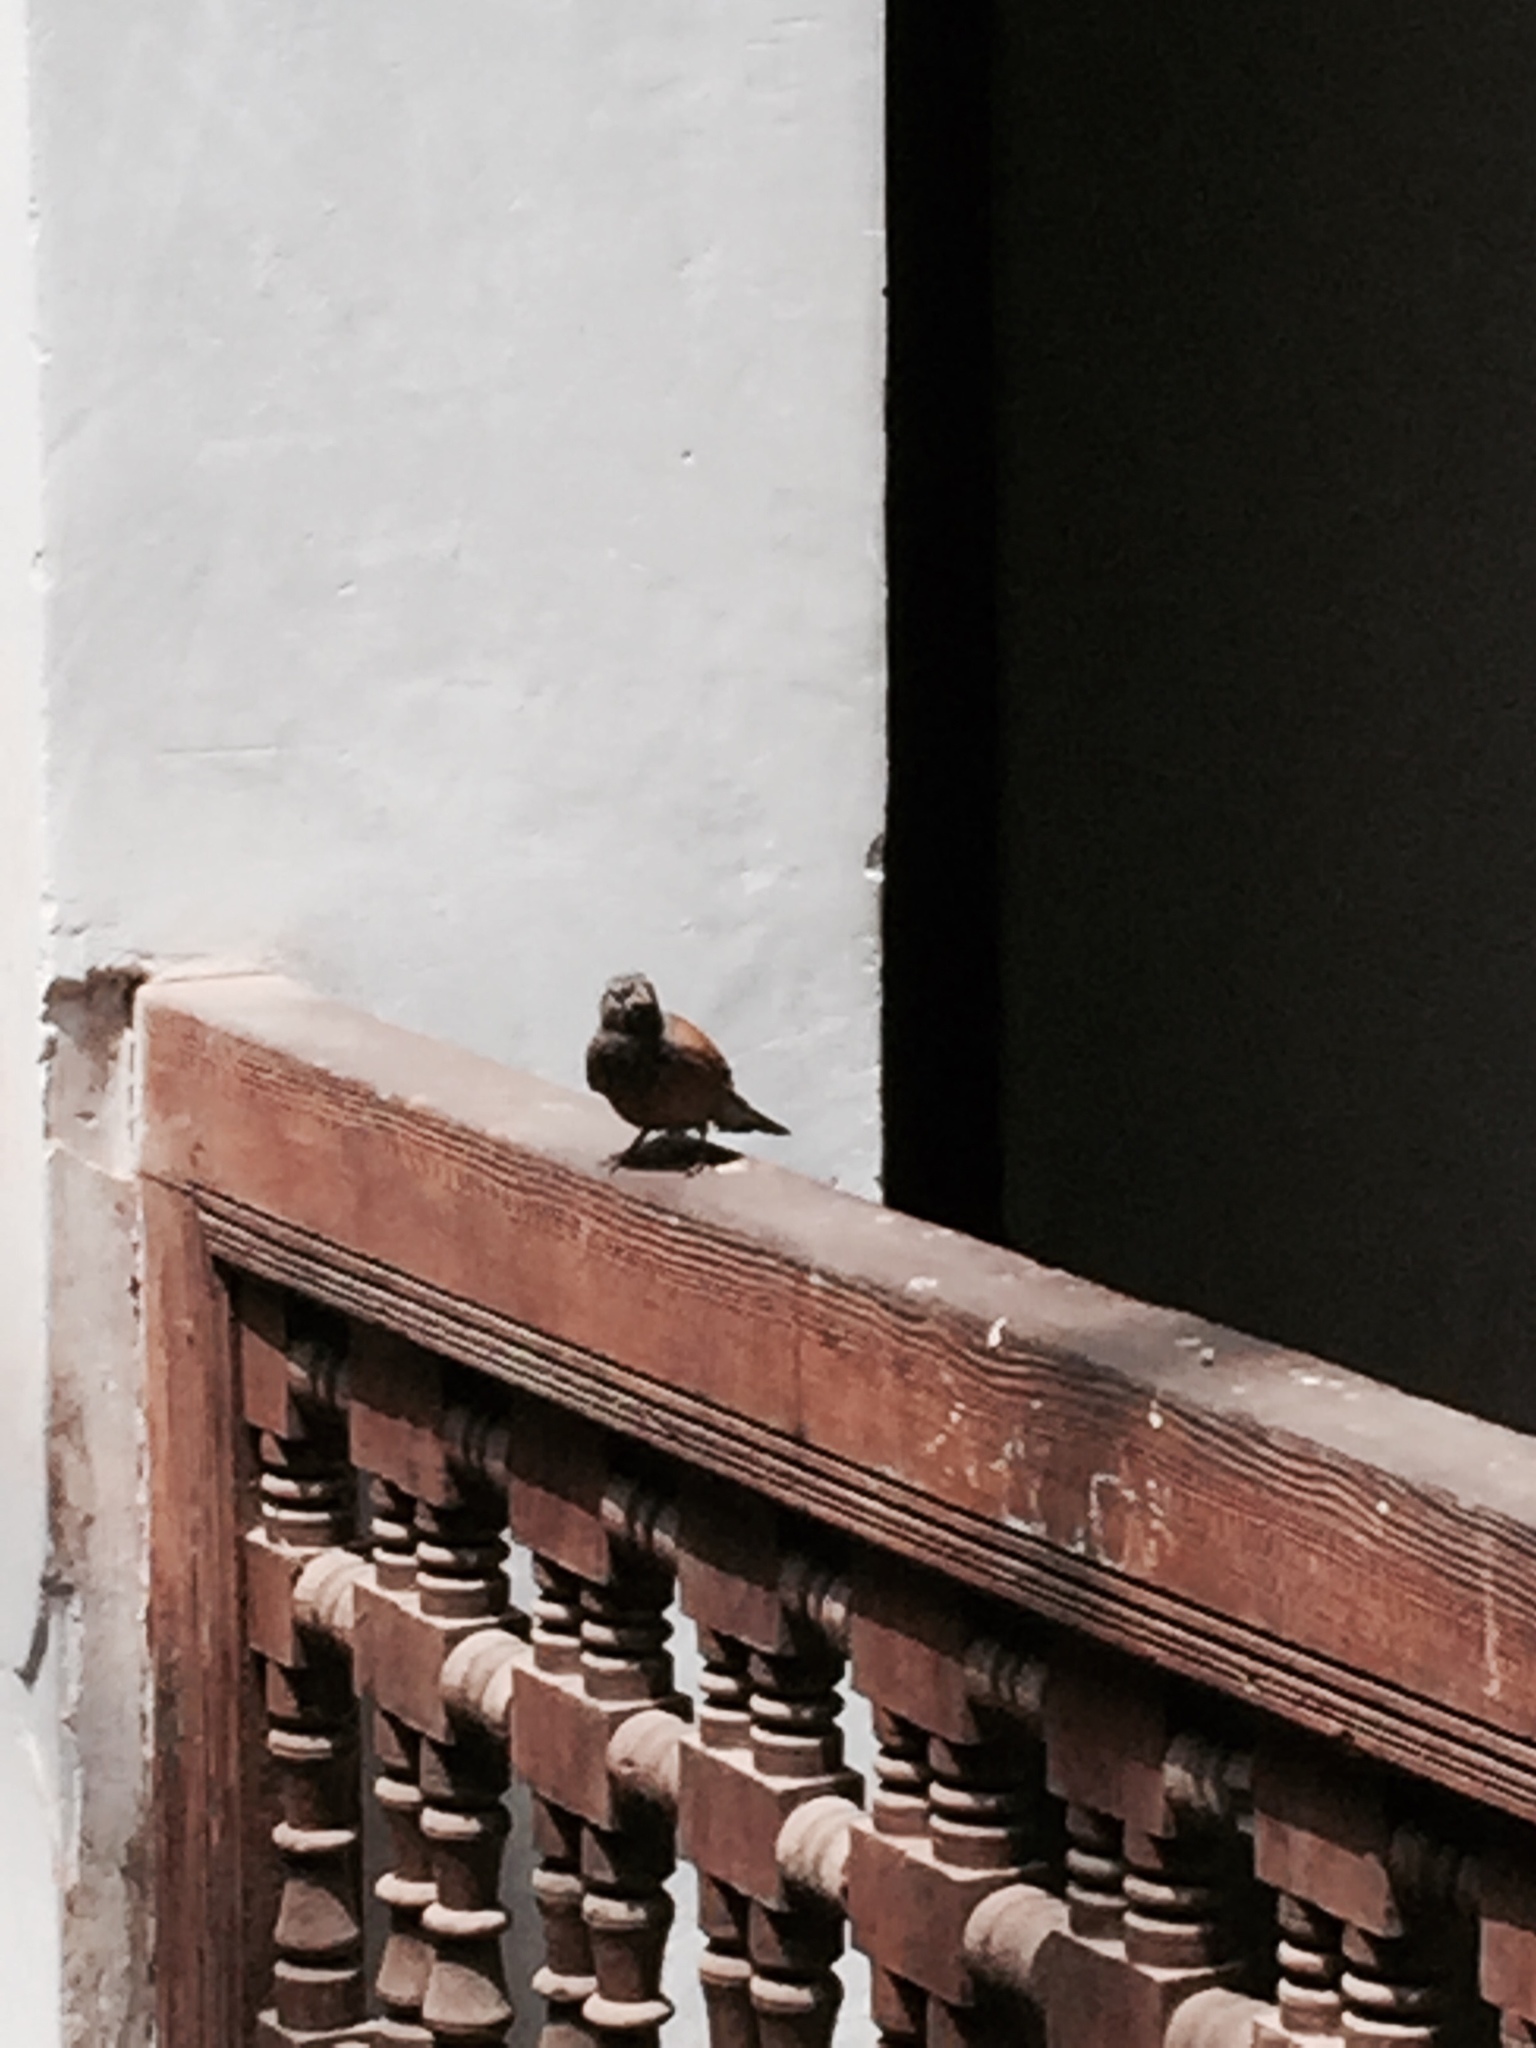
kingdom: Animalia
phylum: Chordata
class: Aves
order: Passeriformes
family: Emberizidae
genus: Emberiza
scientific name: Emberiza sahari
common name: House bunting
